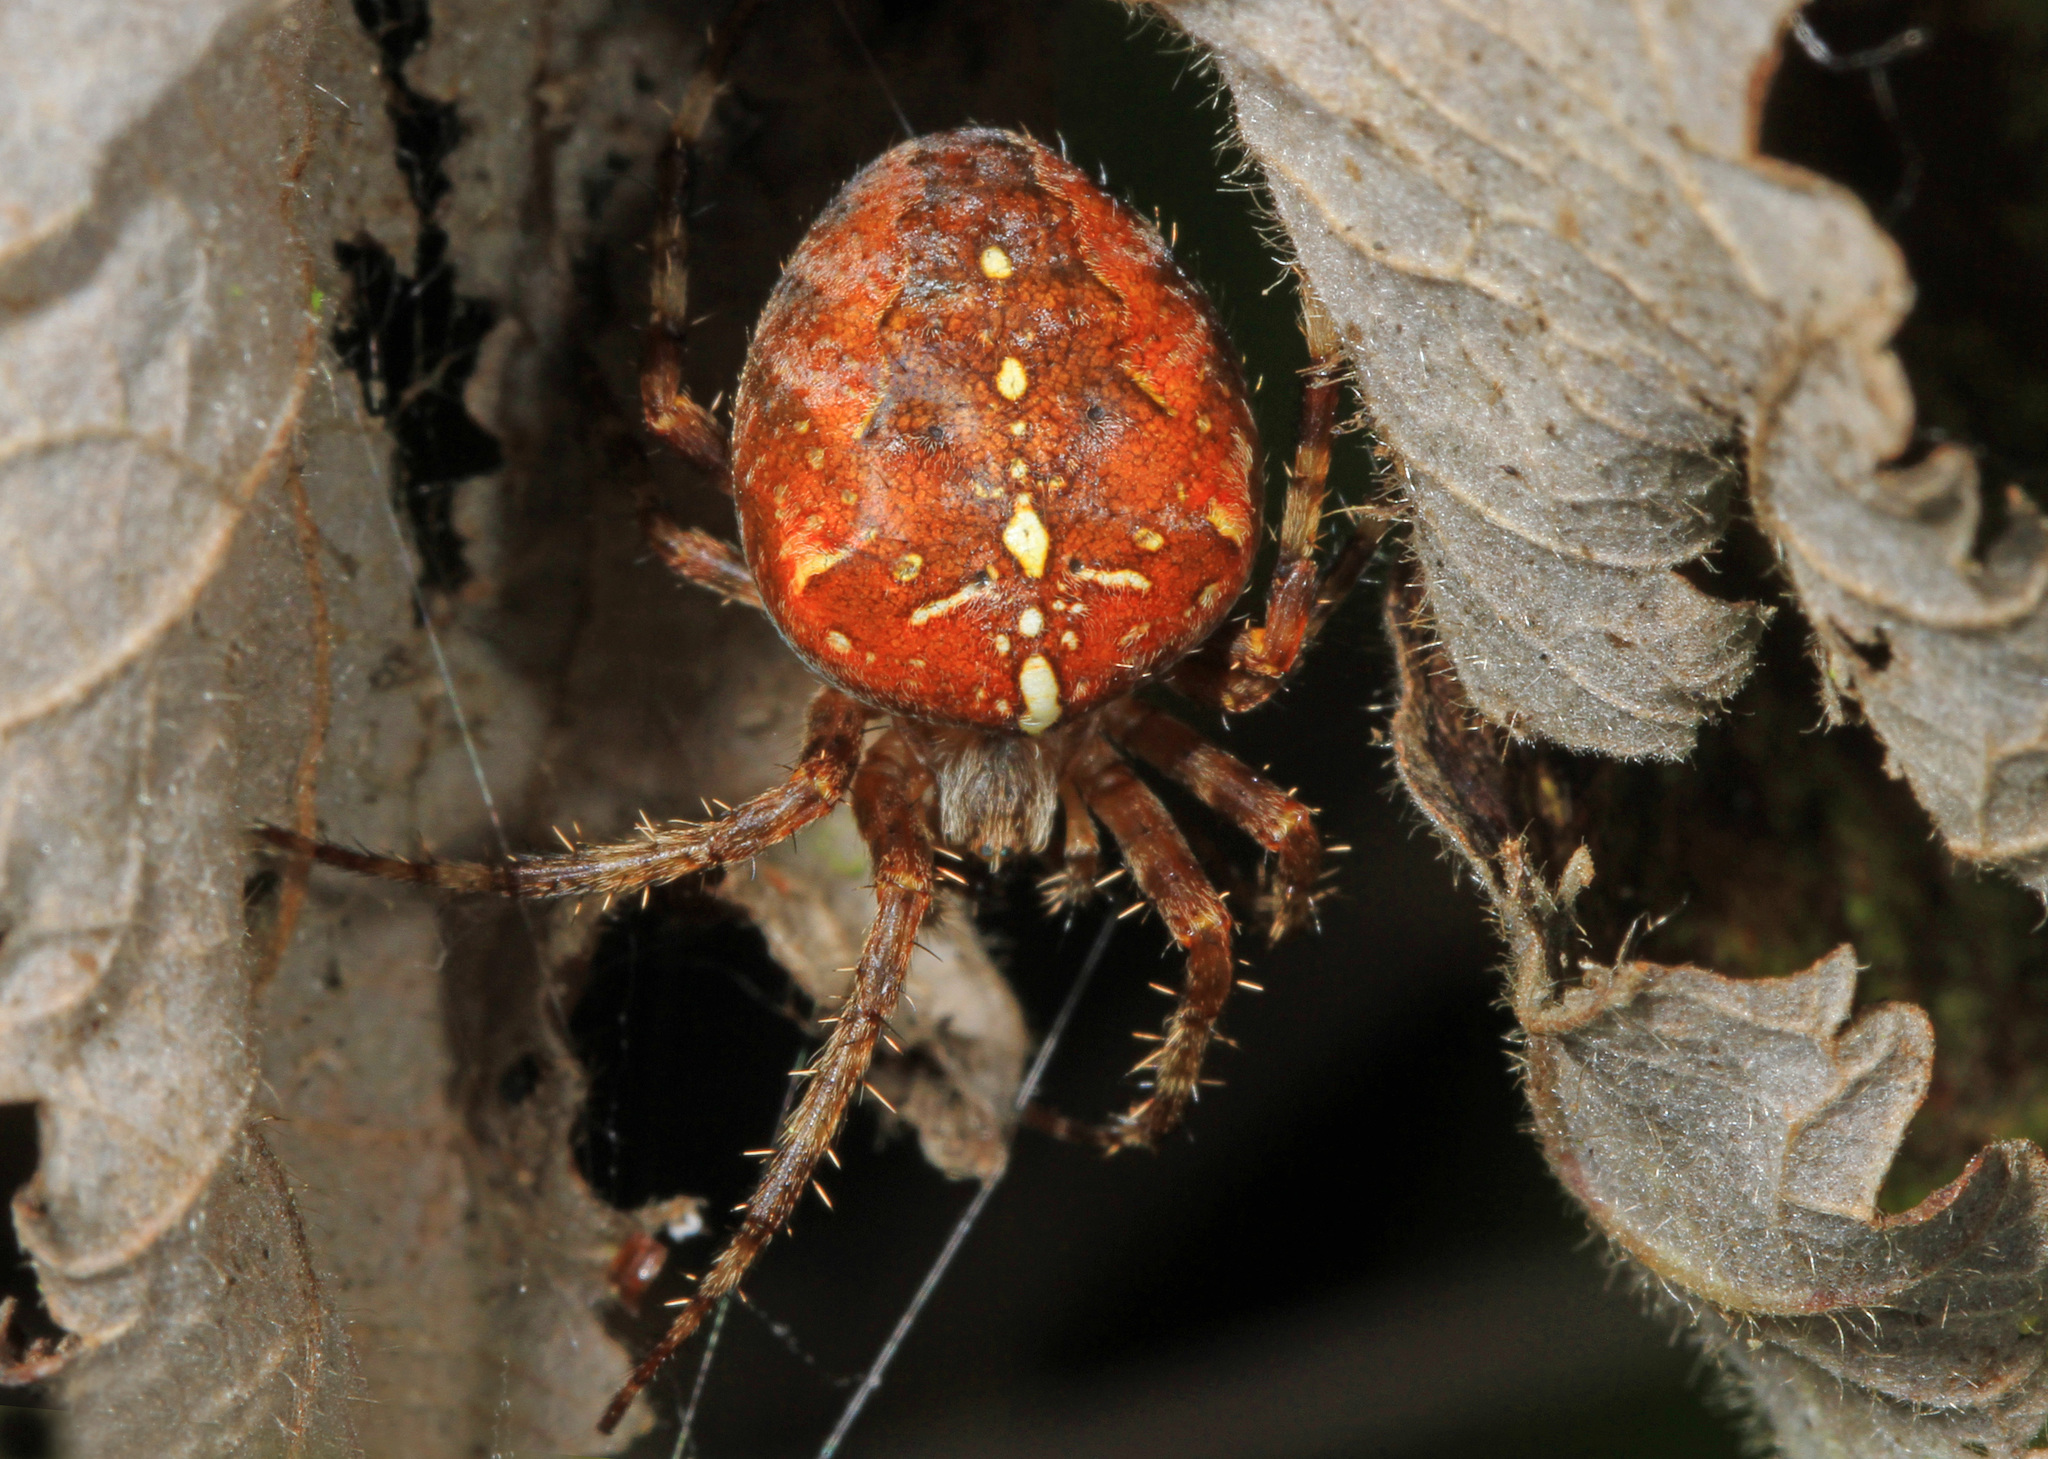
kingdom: Animalia
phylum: Arthropoda
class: Arachnida
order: Araneae
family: Araneidae
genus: Araneus
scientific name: Araneus diadematus
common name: Cross orbweaver
